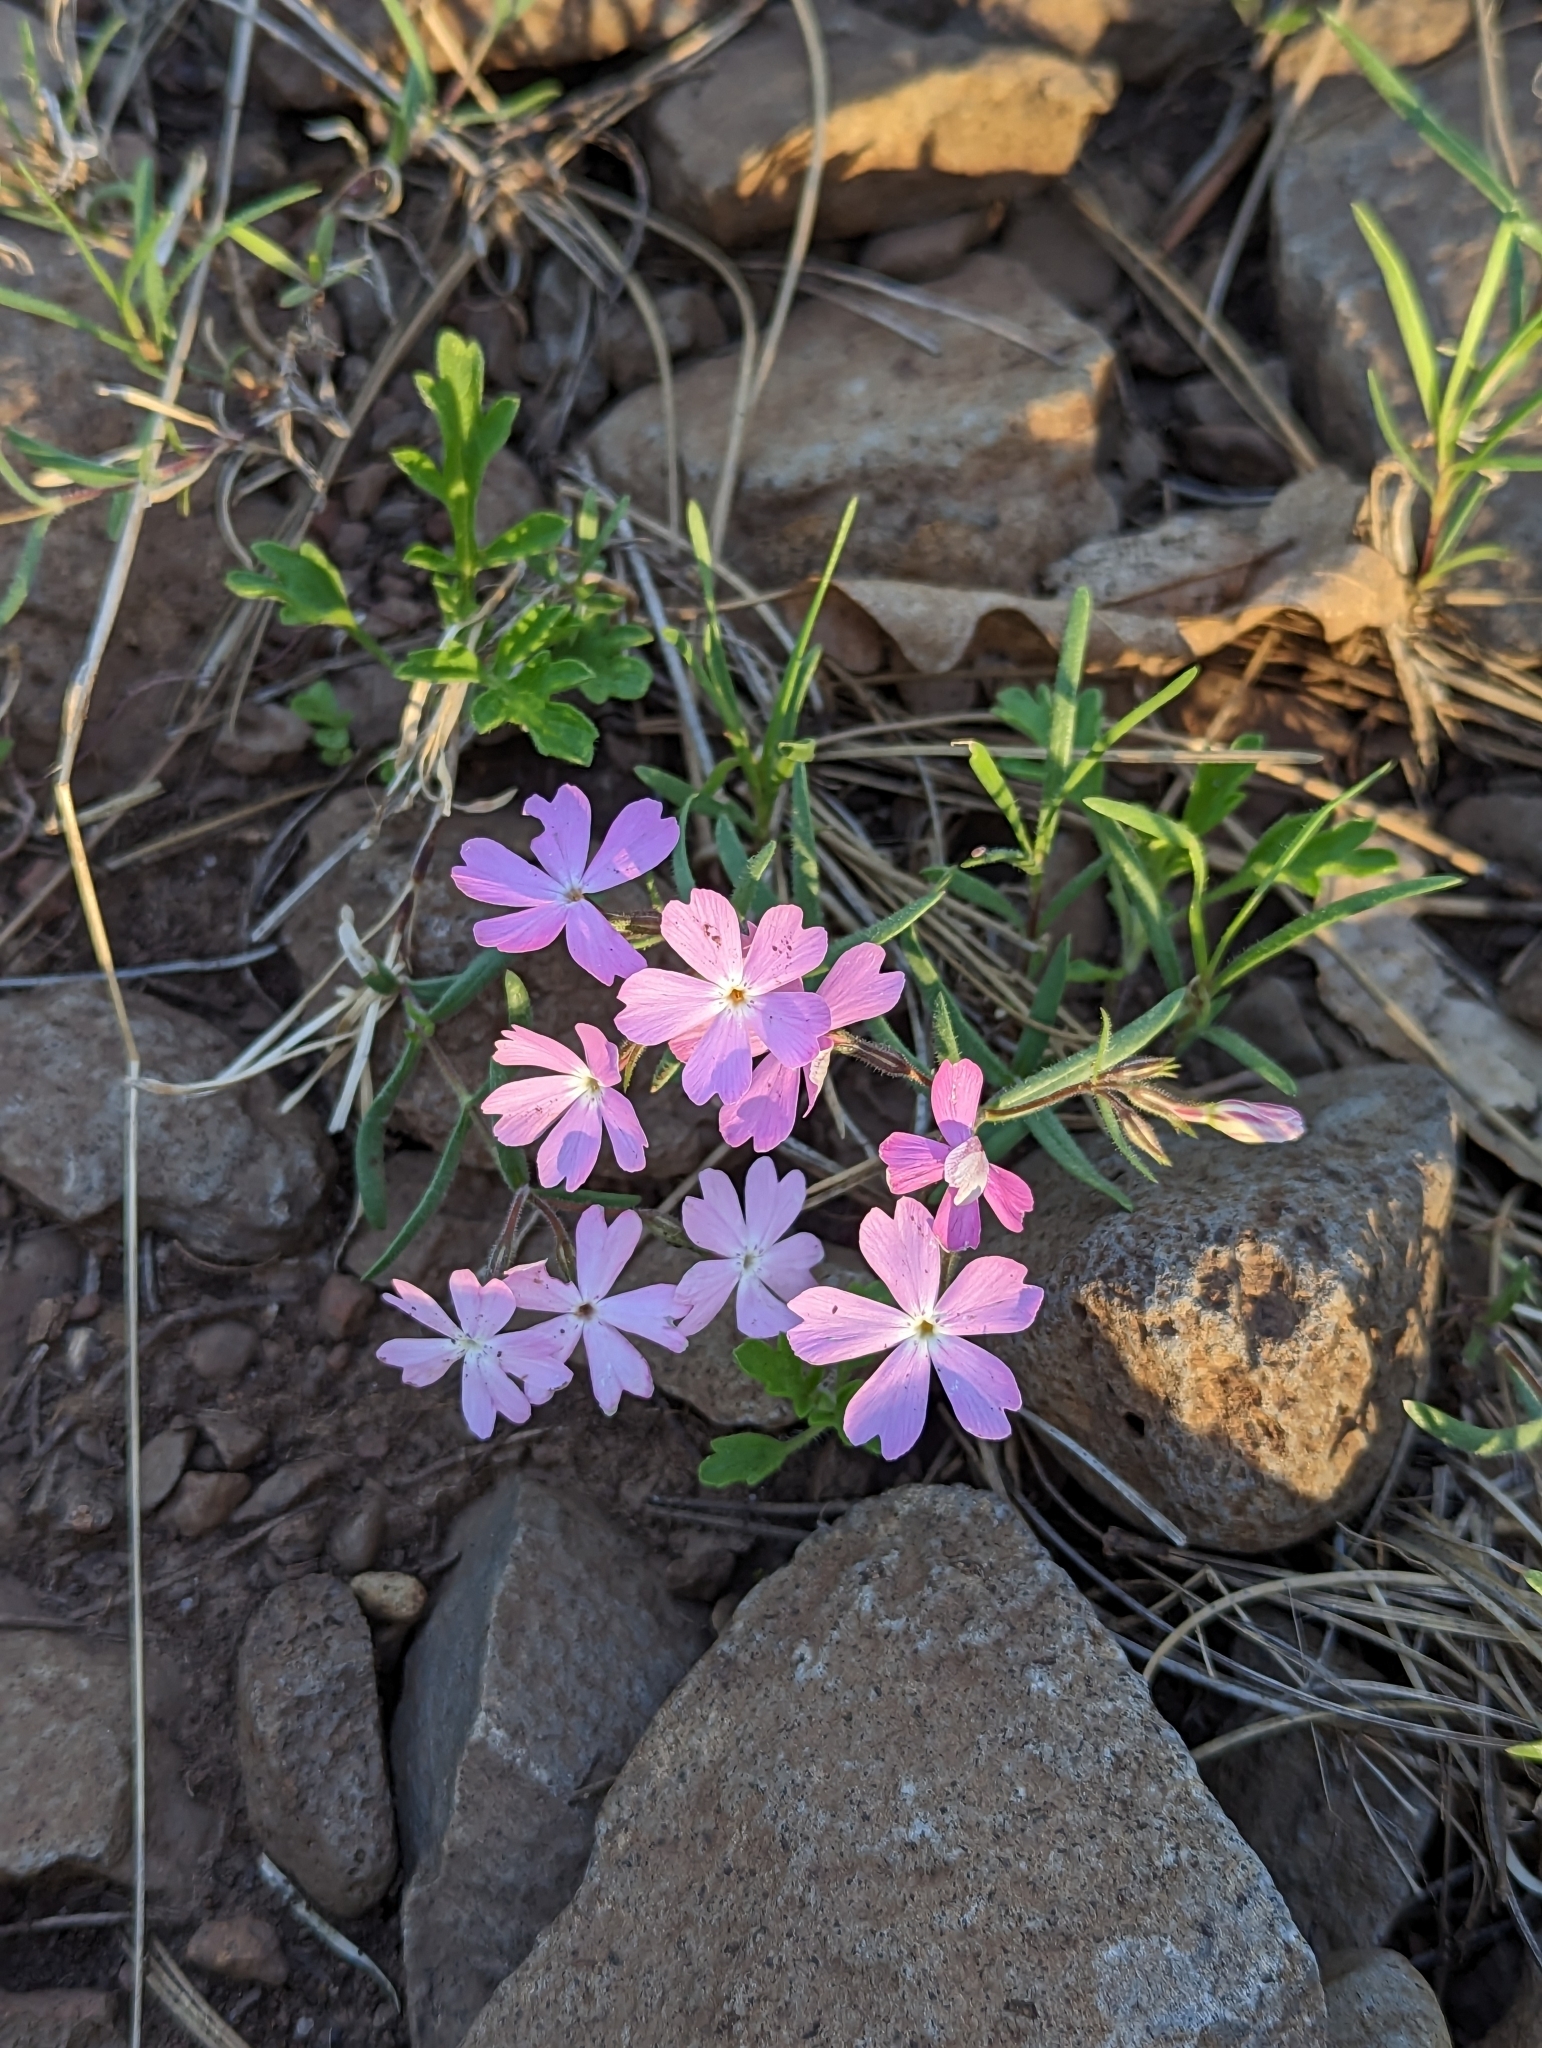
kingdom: Plantae
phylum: Tracheophyta
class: Magnoliopsida
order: Ericales
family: Polemoniaceae
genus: Phlox
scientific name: Phlox woodhousei
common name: Star phlox
